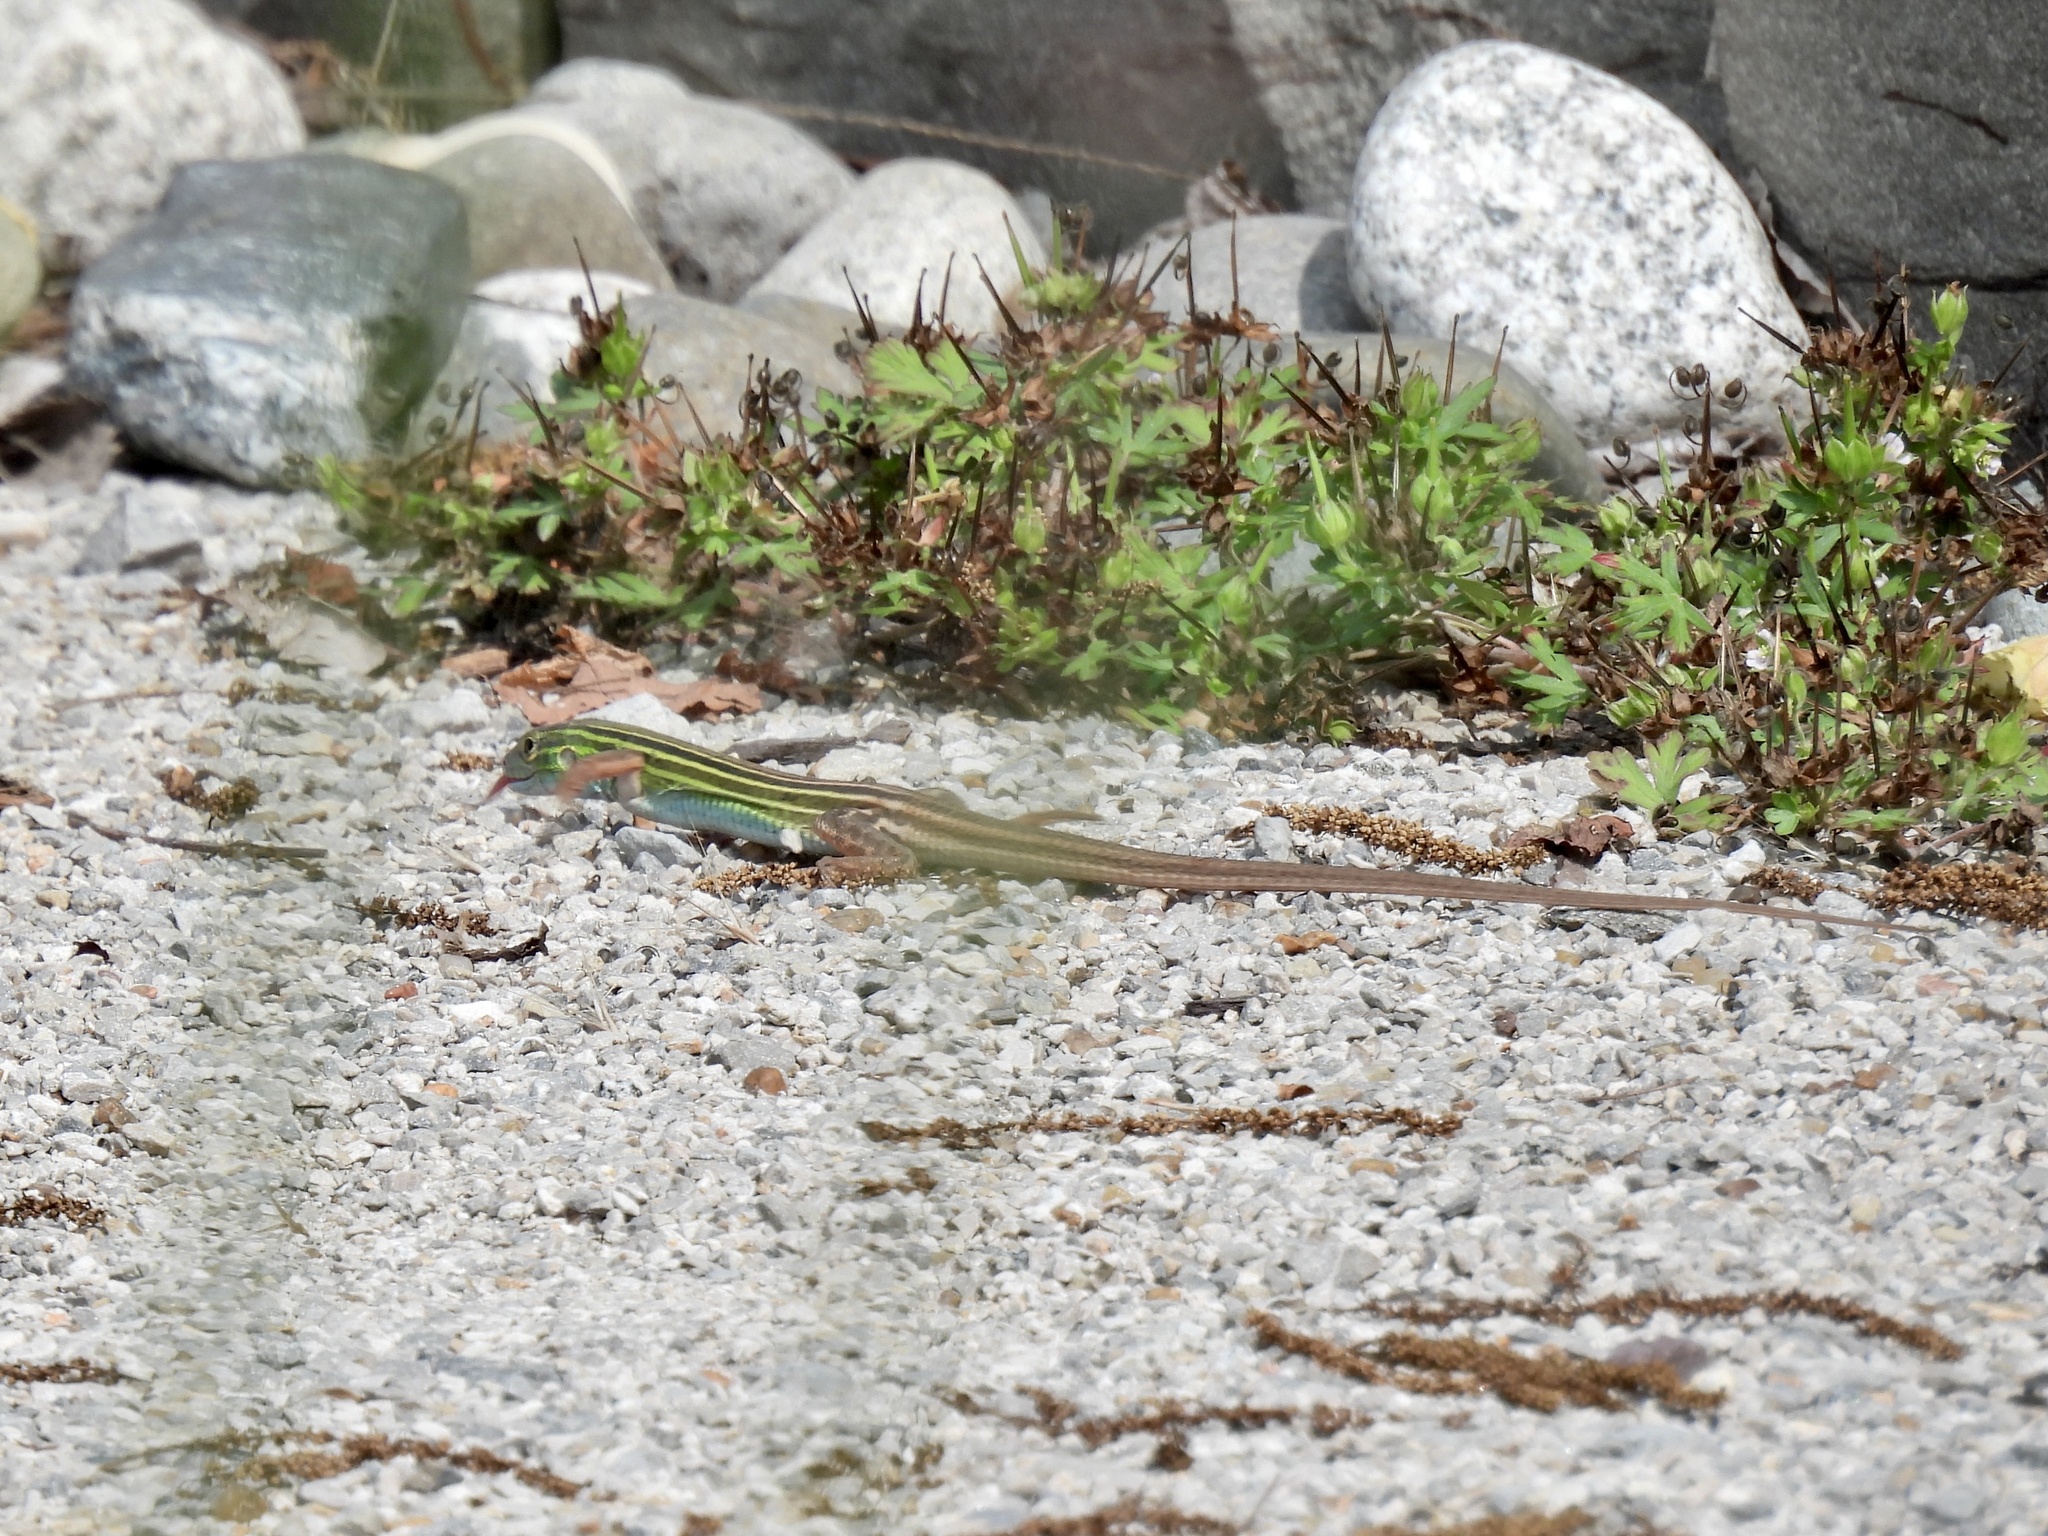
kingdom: Animalia
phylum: Chordata
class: Squamata
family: Teiidae
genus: Aspidoscelis
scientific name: Aspidoscelis sexlineatus
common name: Six-lined racerunner
